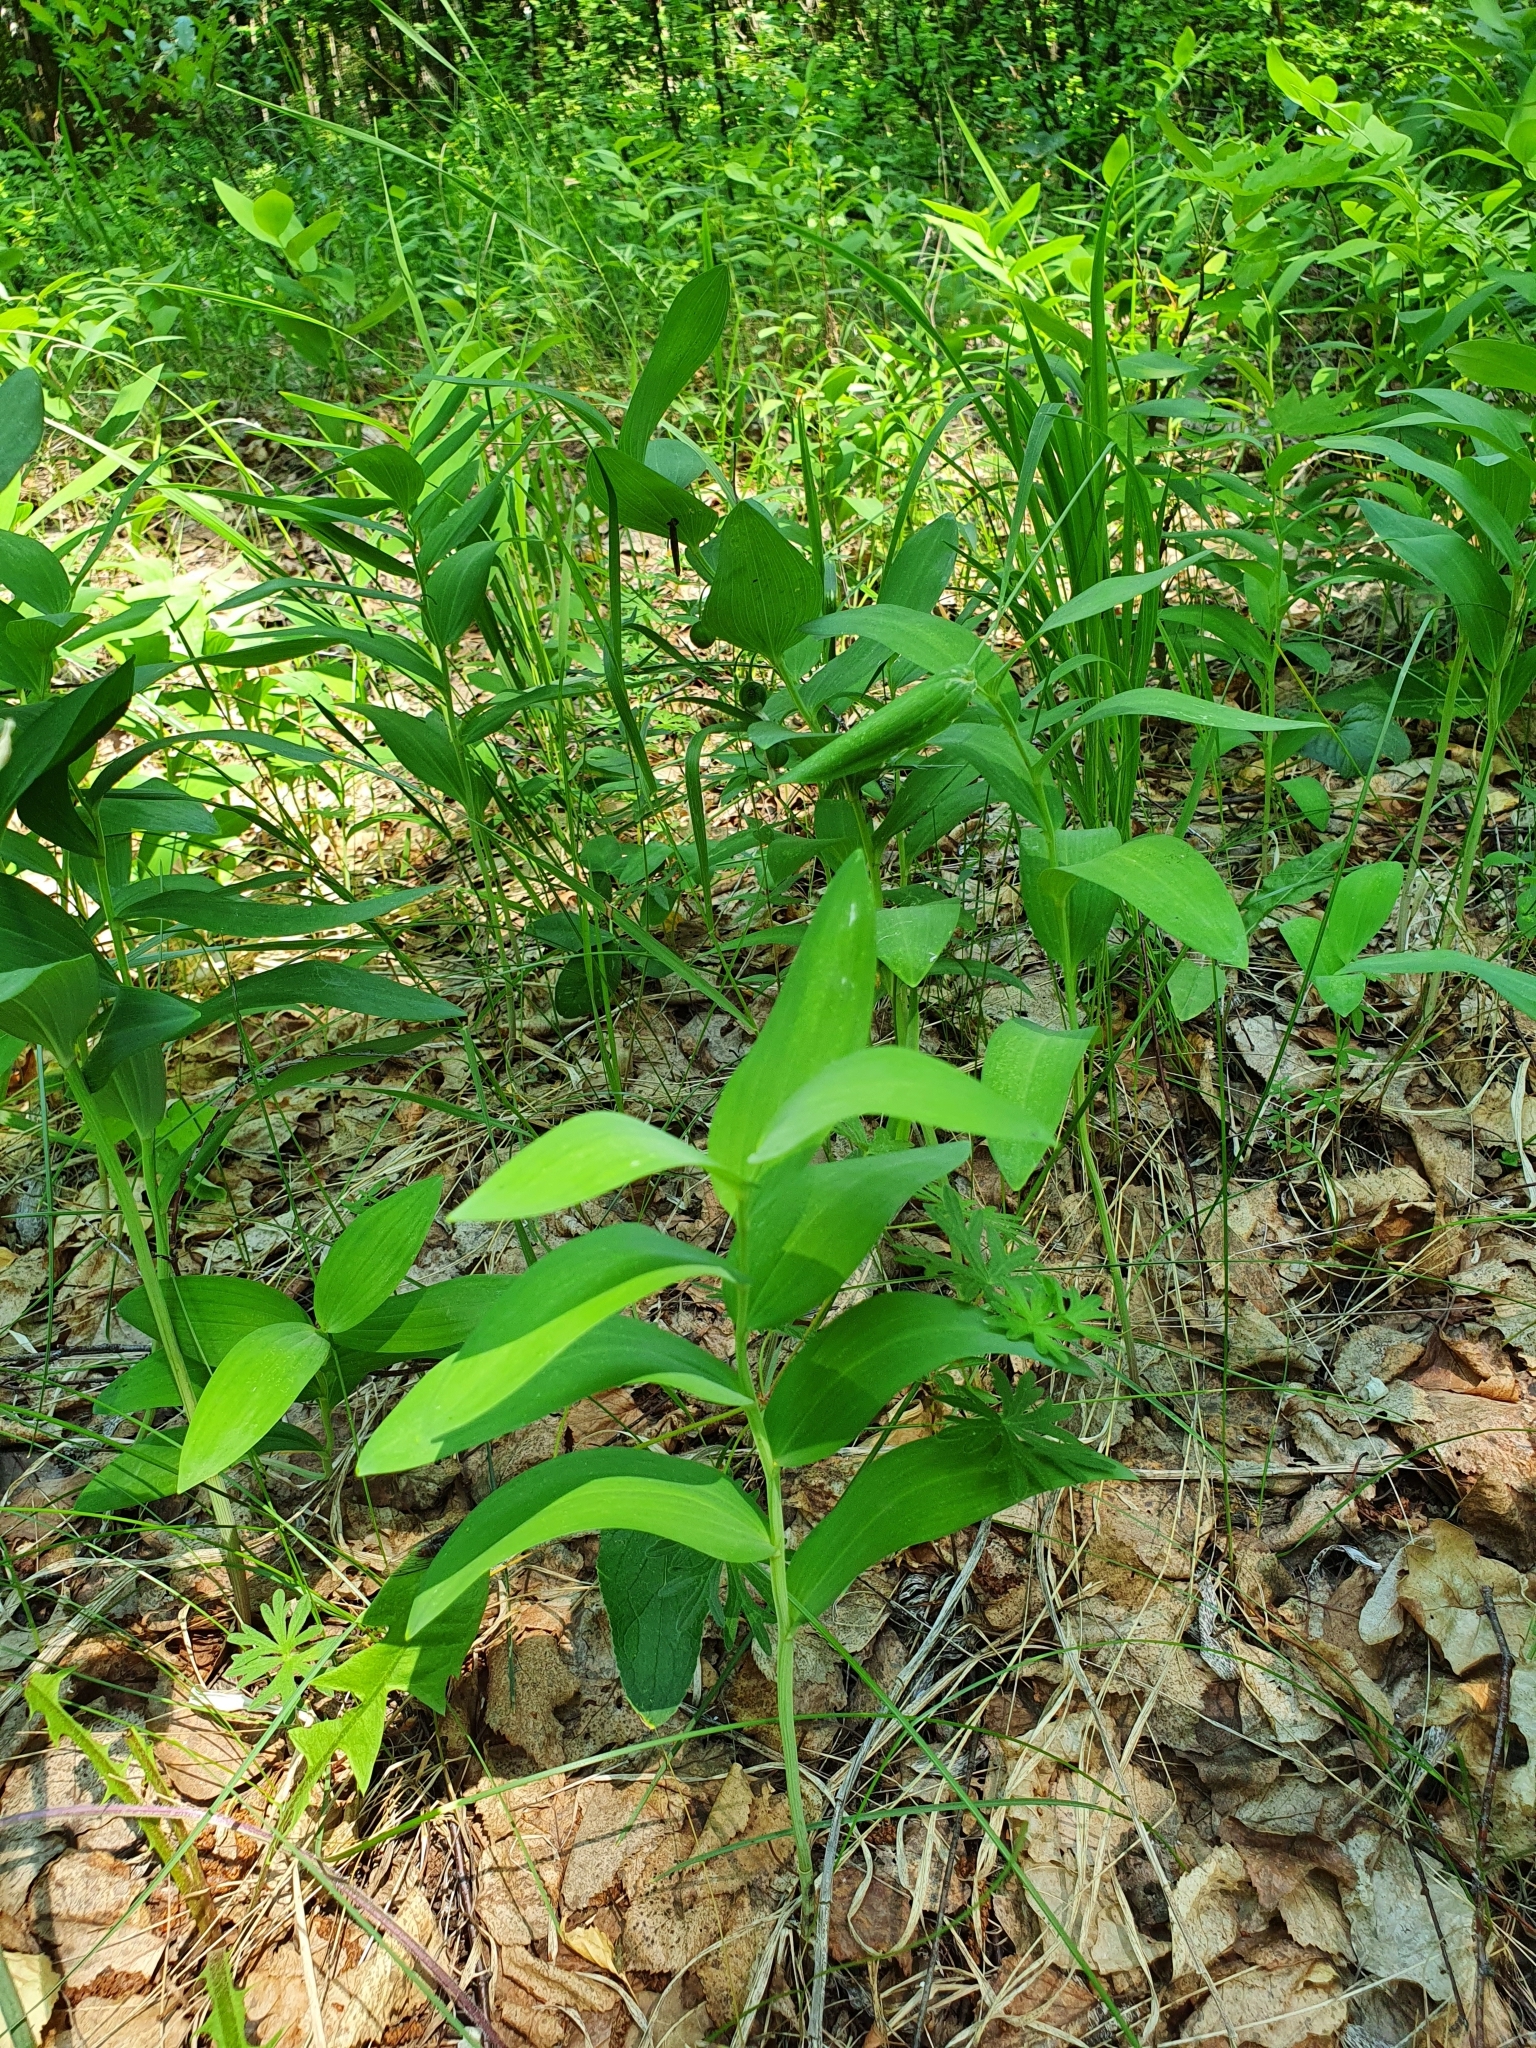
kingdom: Plantae
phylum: Tracheophyta
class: Liliopsida
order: Asparagales
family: Asparagaceae
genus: Polygonatum
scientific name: Polygonatum odoratum
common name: Angular solomon's-seal
